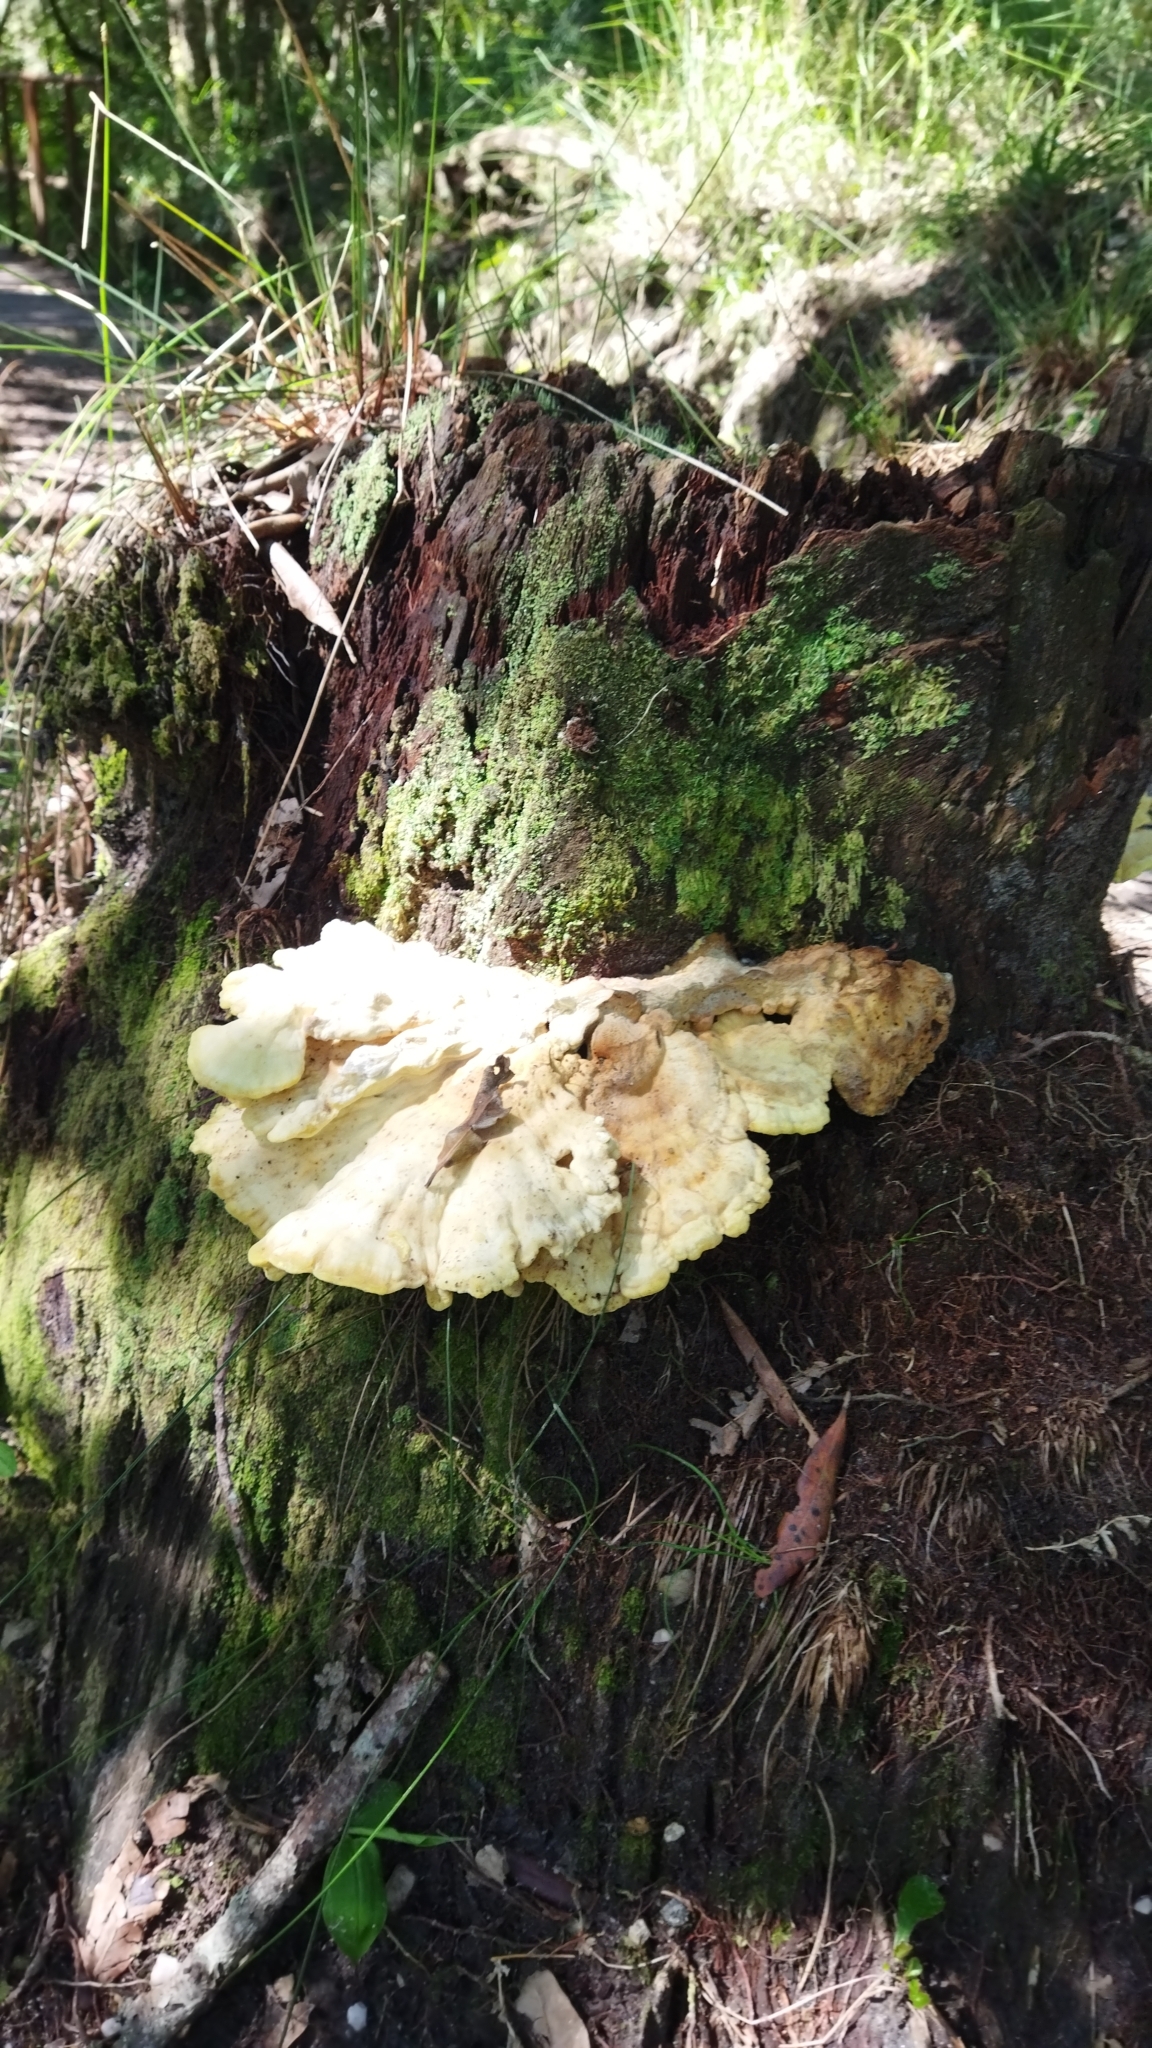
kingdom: Fungi
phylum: Basidiomycota
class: Agaricomycetes
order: Polyporales
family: Laetiporaceae
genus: Laetiporus
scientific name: Laetiporus sulphureus
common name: Chicken of the woods
